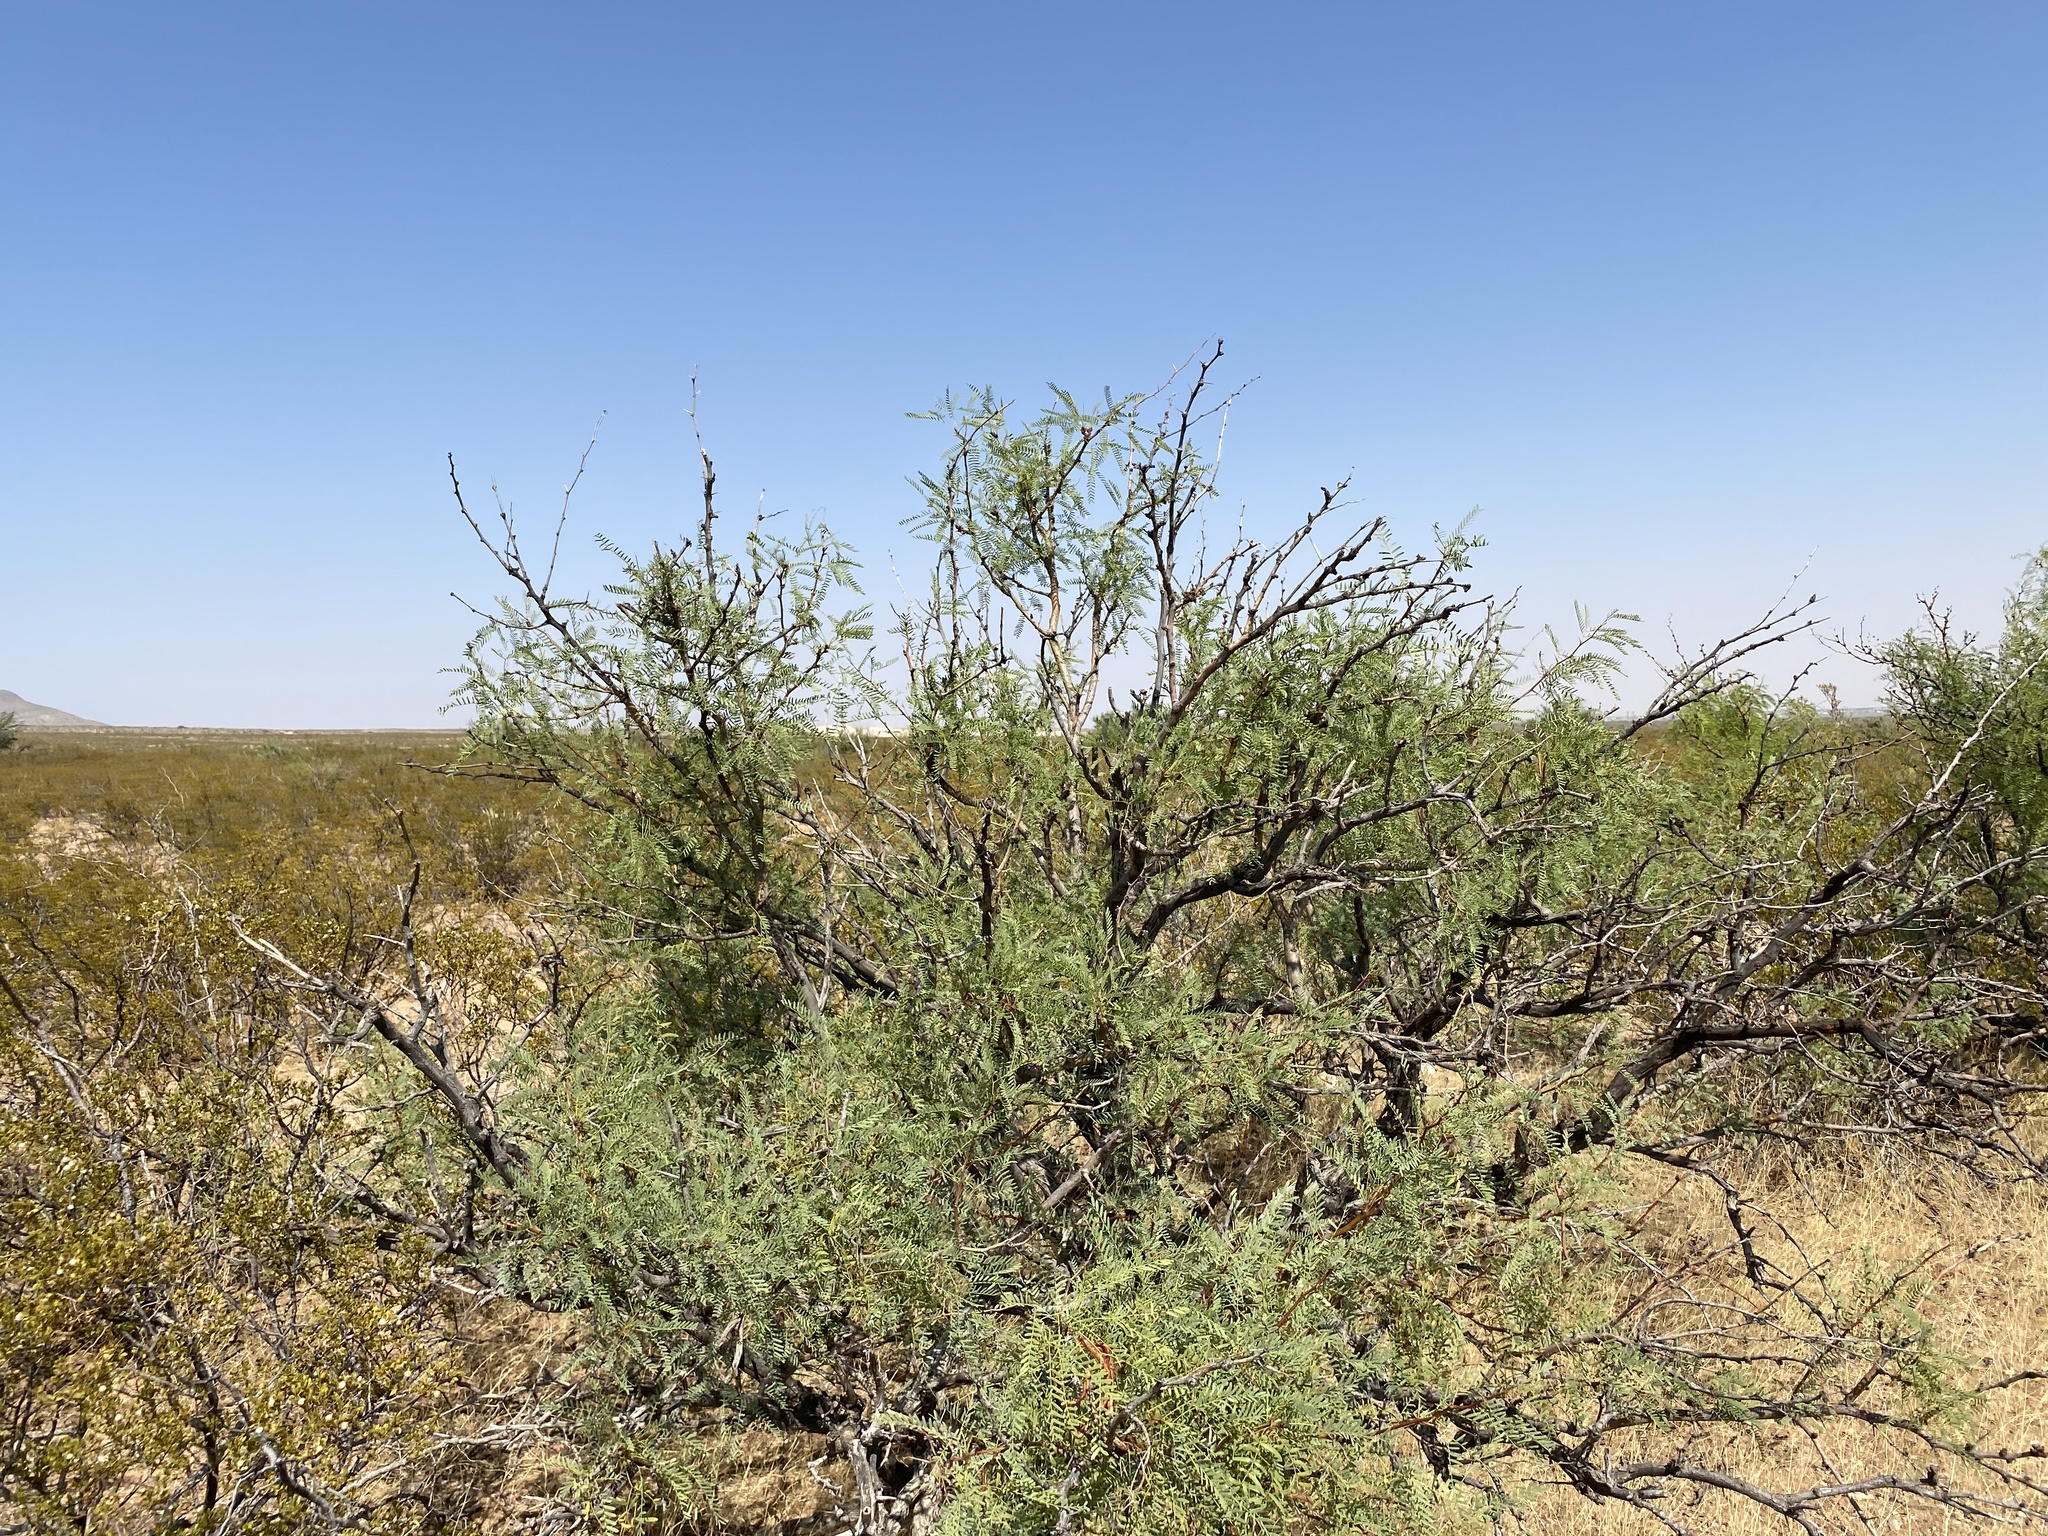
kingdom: Plantae
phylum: Tracheophyta
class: Magnoliopsida
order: Fabales
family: Fabaceae
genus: Prosopis
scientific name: Prosopis glandulosa
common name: Honey mesquite
